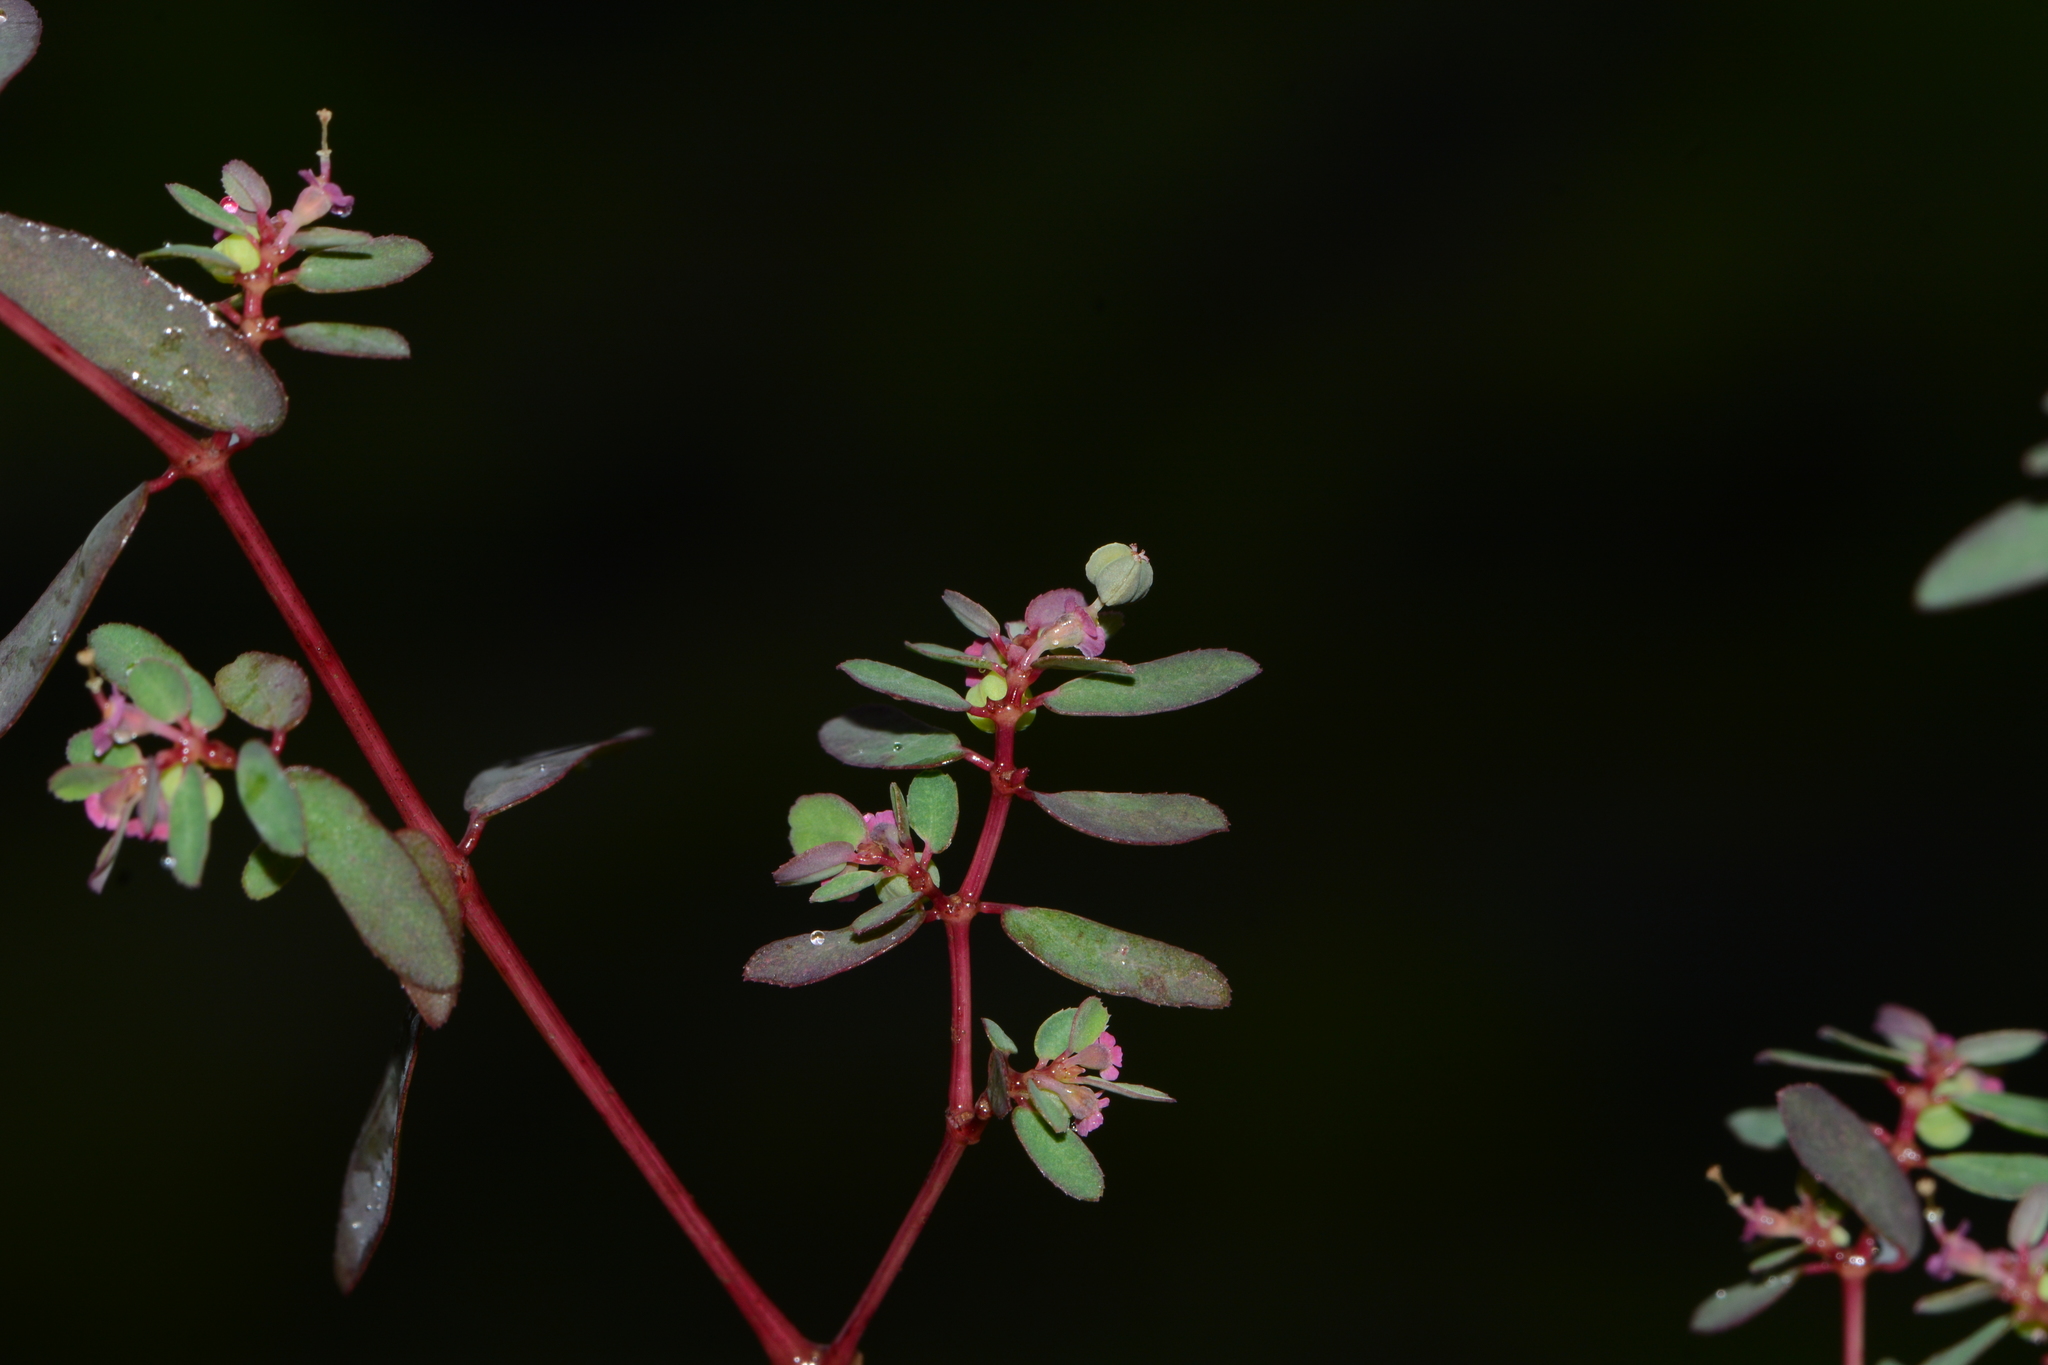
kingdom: Plantae
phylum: Tracheophyta
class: Magnoliopsida
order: Malpighiales
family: Euphorbiaceae
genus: Euphorbia
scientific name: Euphorbia notoptera
